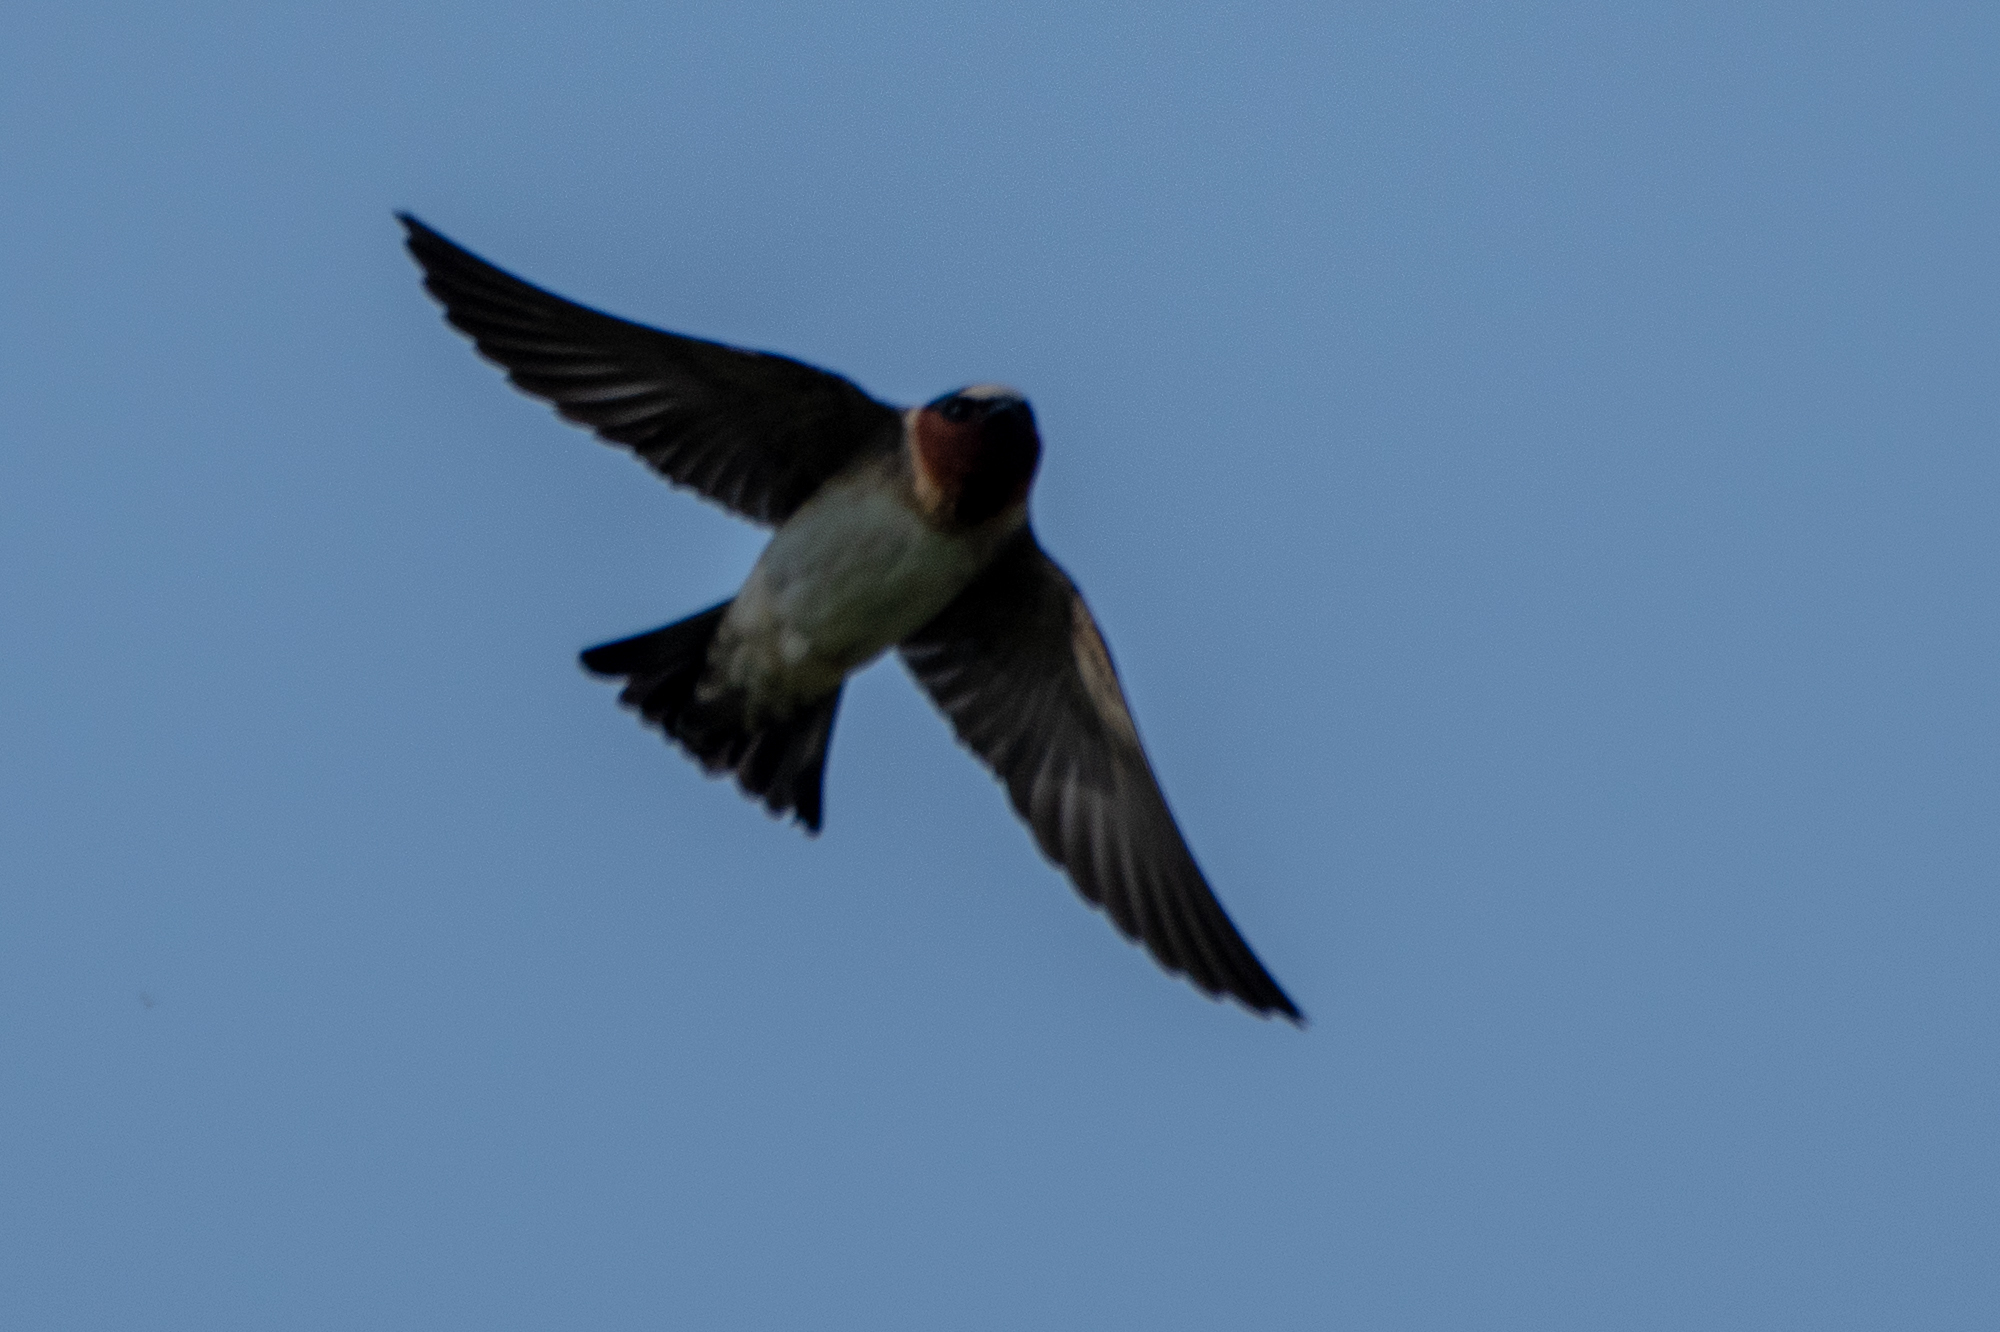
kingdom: Animalia
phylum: Chordata
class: Aves
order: Passeriformes
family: Hirundinidae
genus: Petrochelidon
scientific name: Petrochelidon pyrrhonota
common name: American cliff swallow
